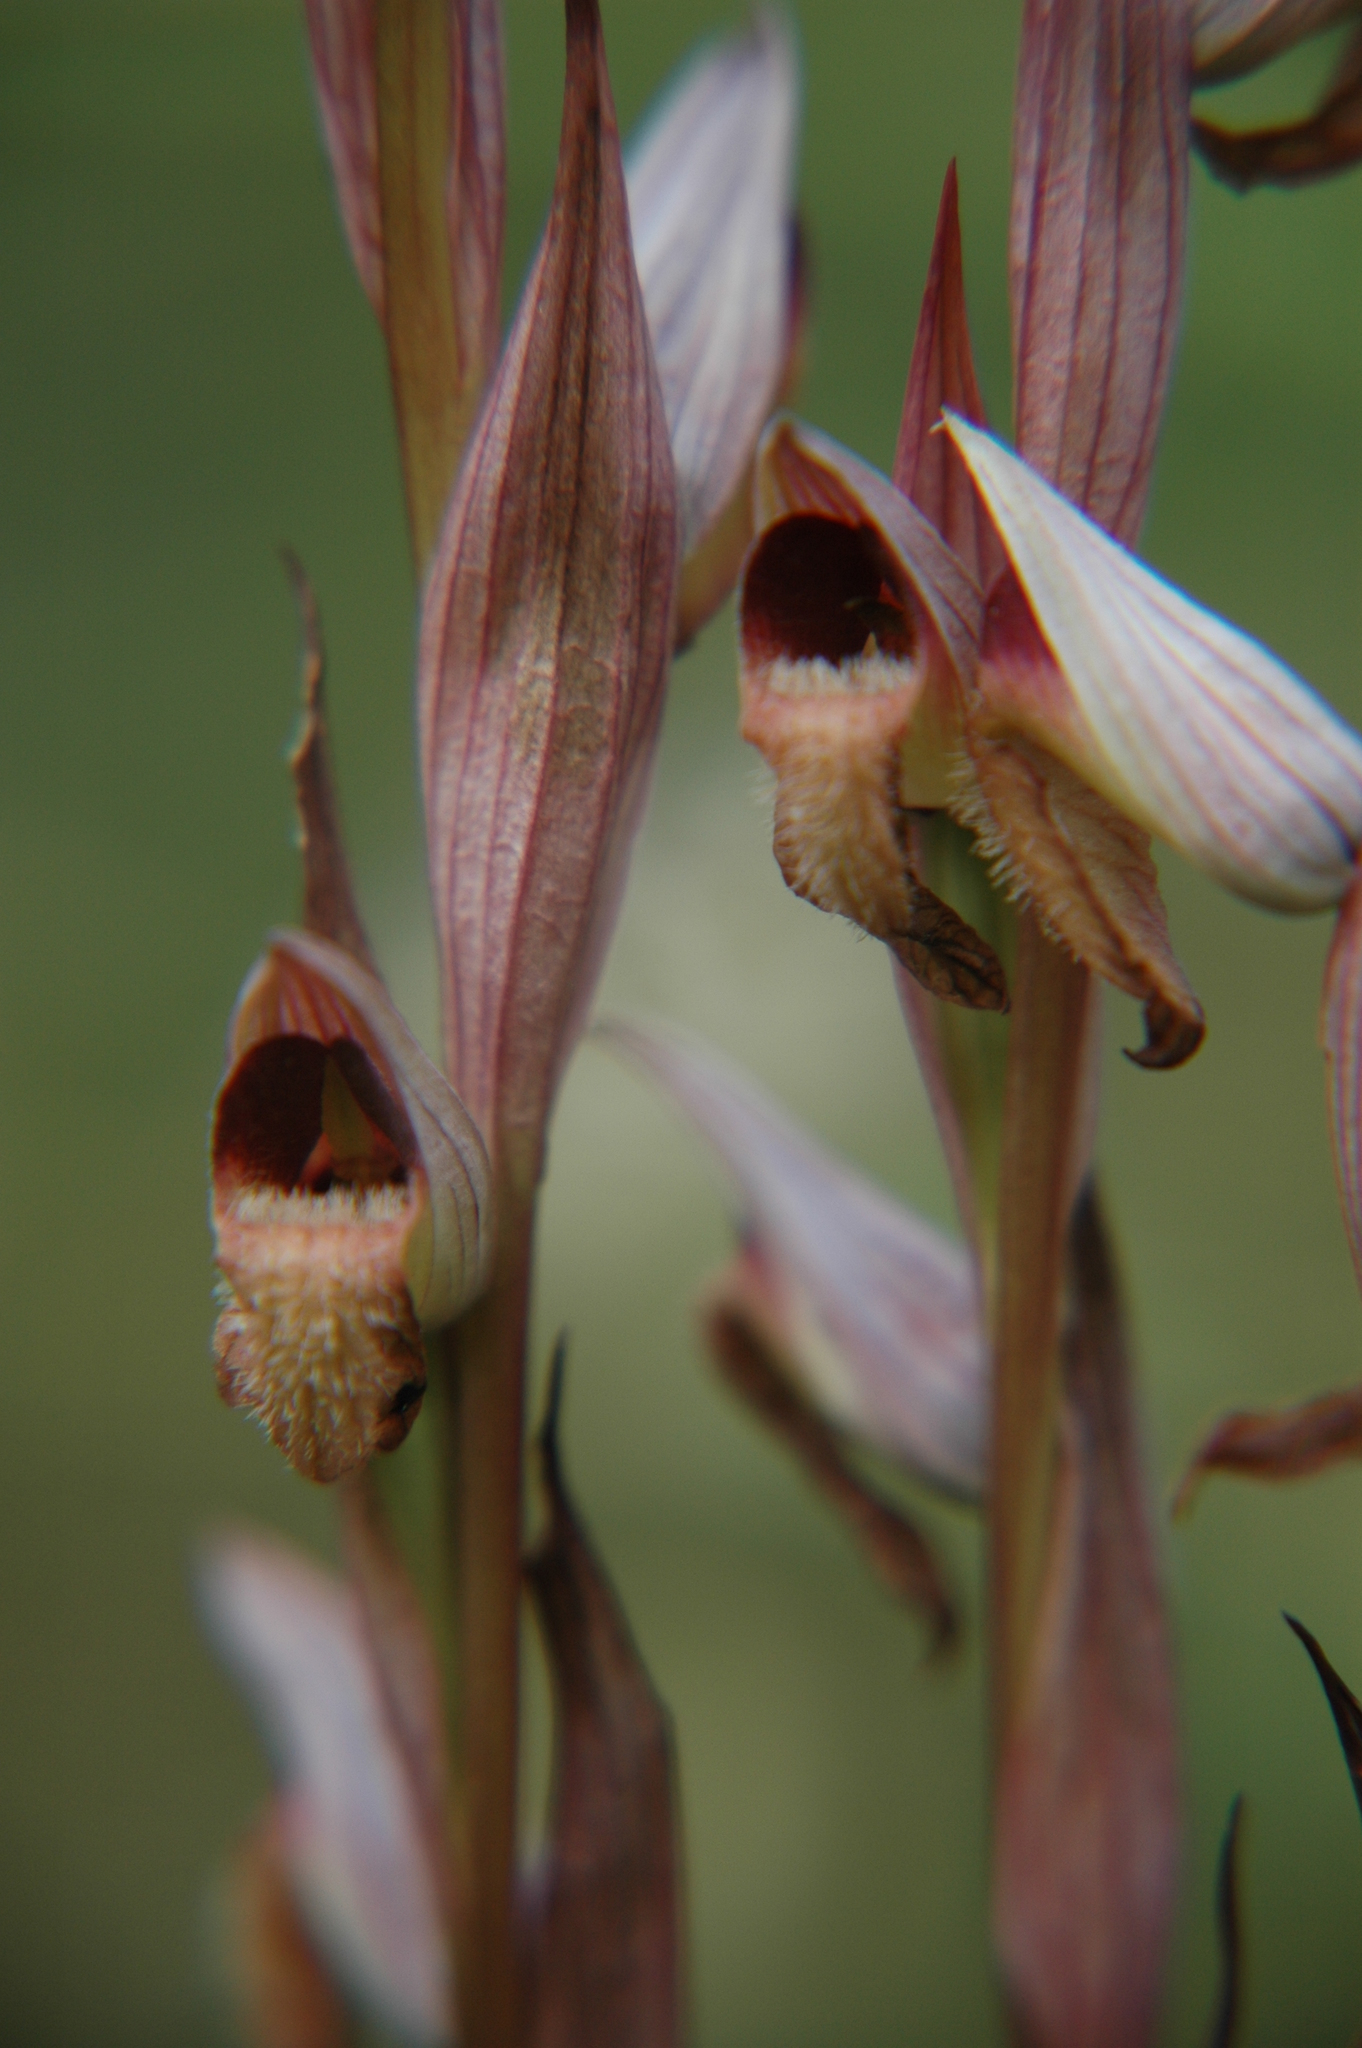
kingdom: Plantae
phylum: Tracheophyta
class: Liliopsida
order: Asparagales
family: Orchidaceae
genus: Serapias
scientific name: Serapias parviflora
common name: Small-flowered tongue-orchid
